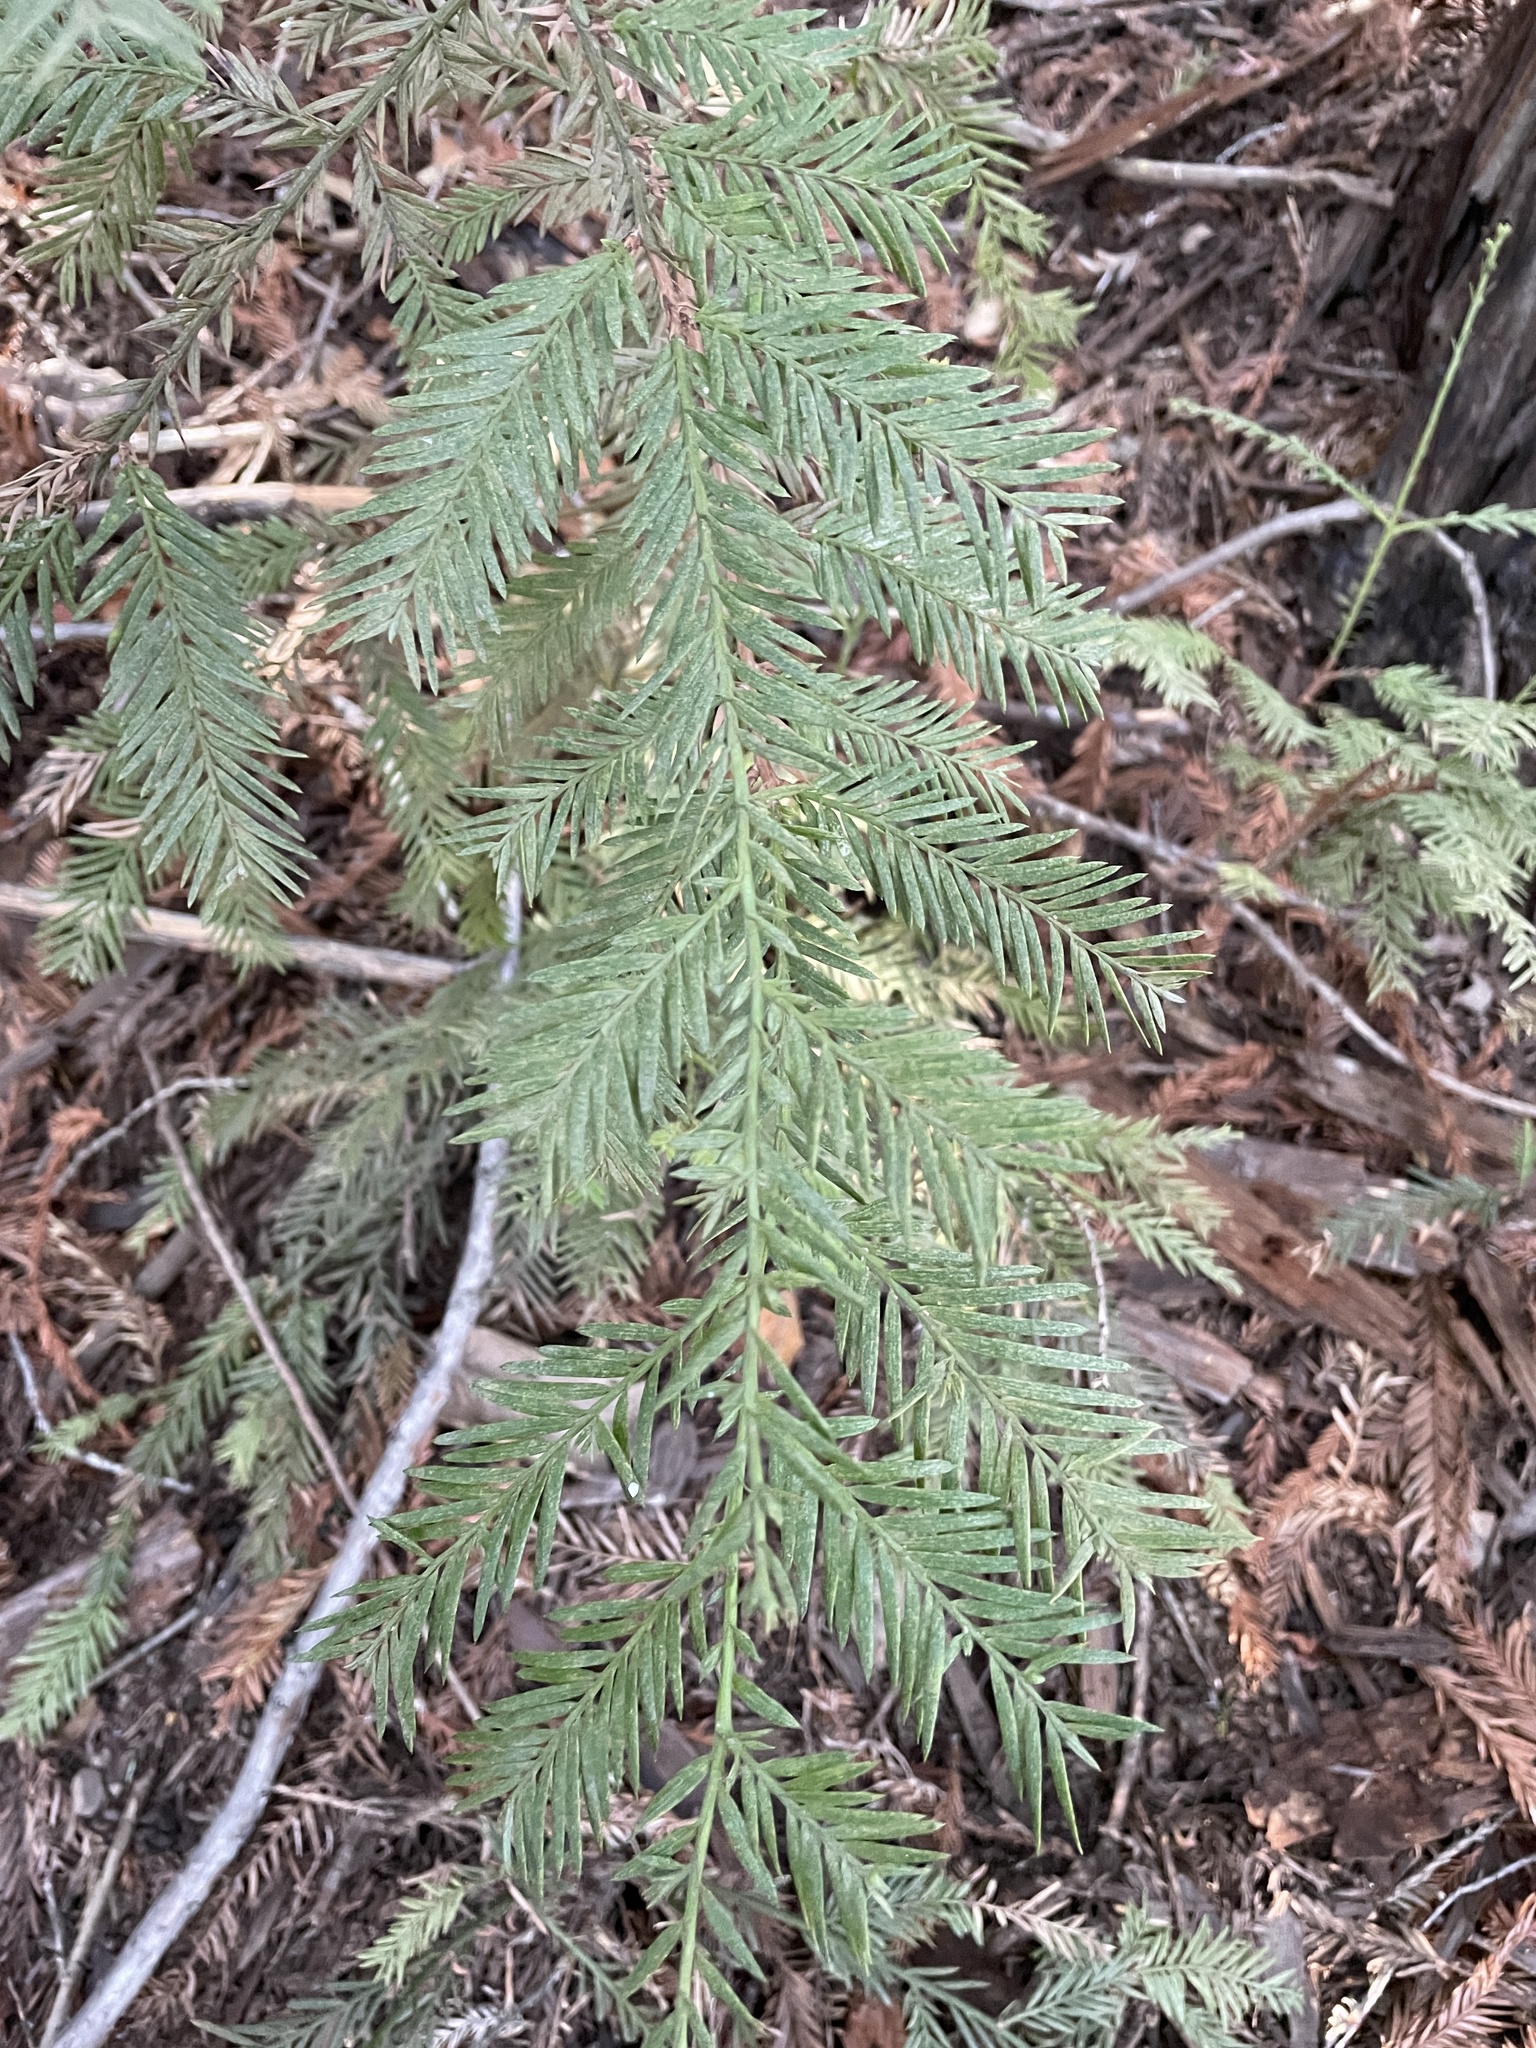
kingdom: Plantae
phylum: Tracheophyta
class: Pinopsida
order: Pinales
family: Cupressaceae
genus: Sequoia
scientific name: Sequoia sempervirens
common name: Coast redwood
